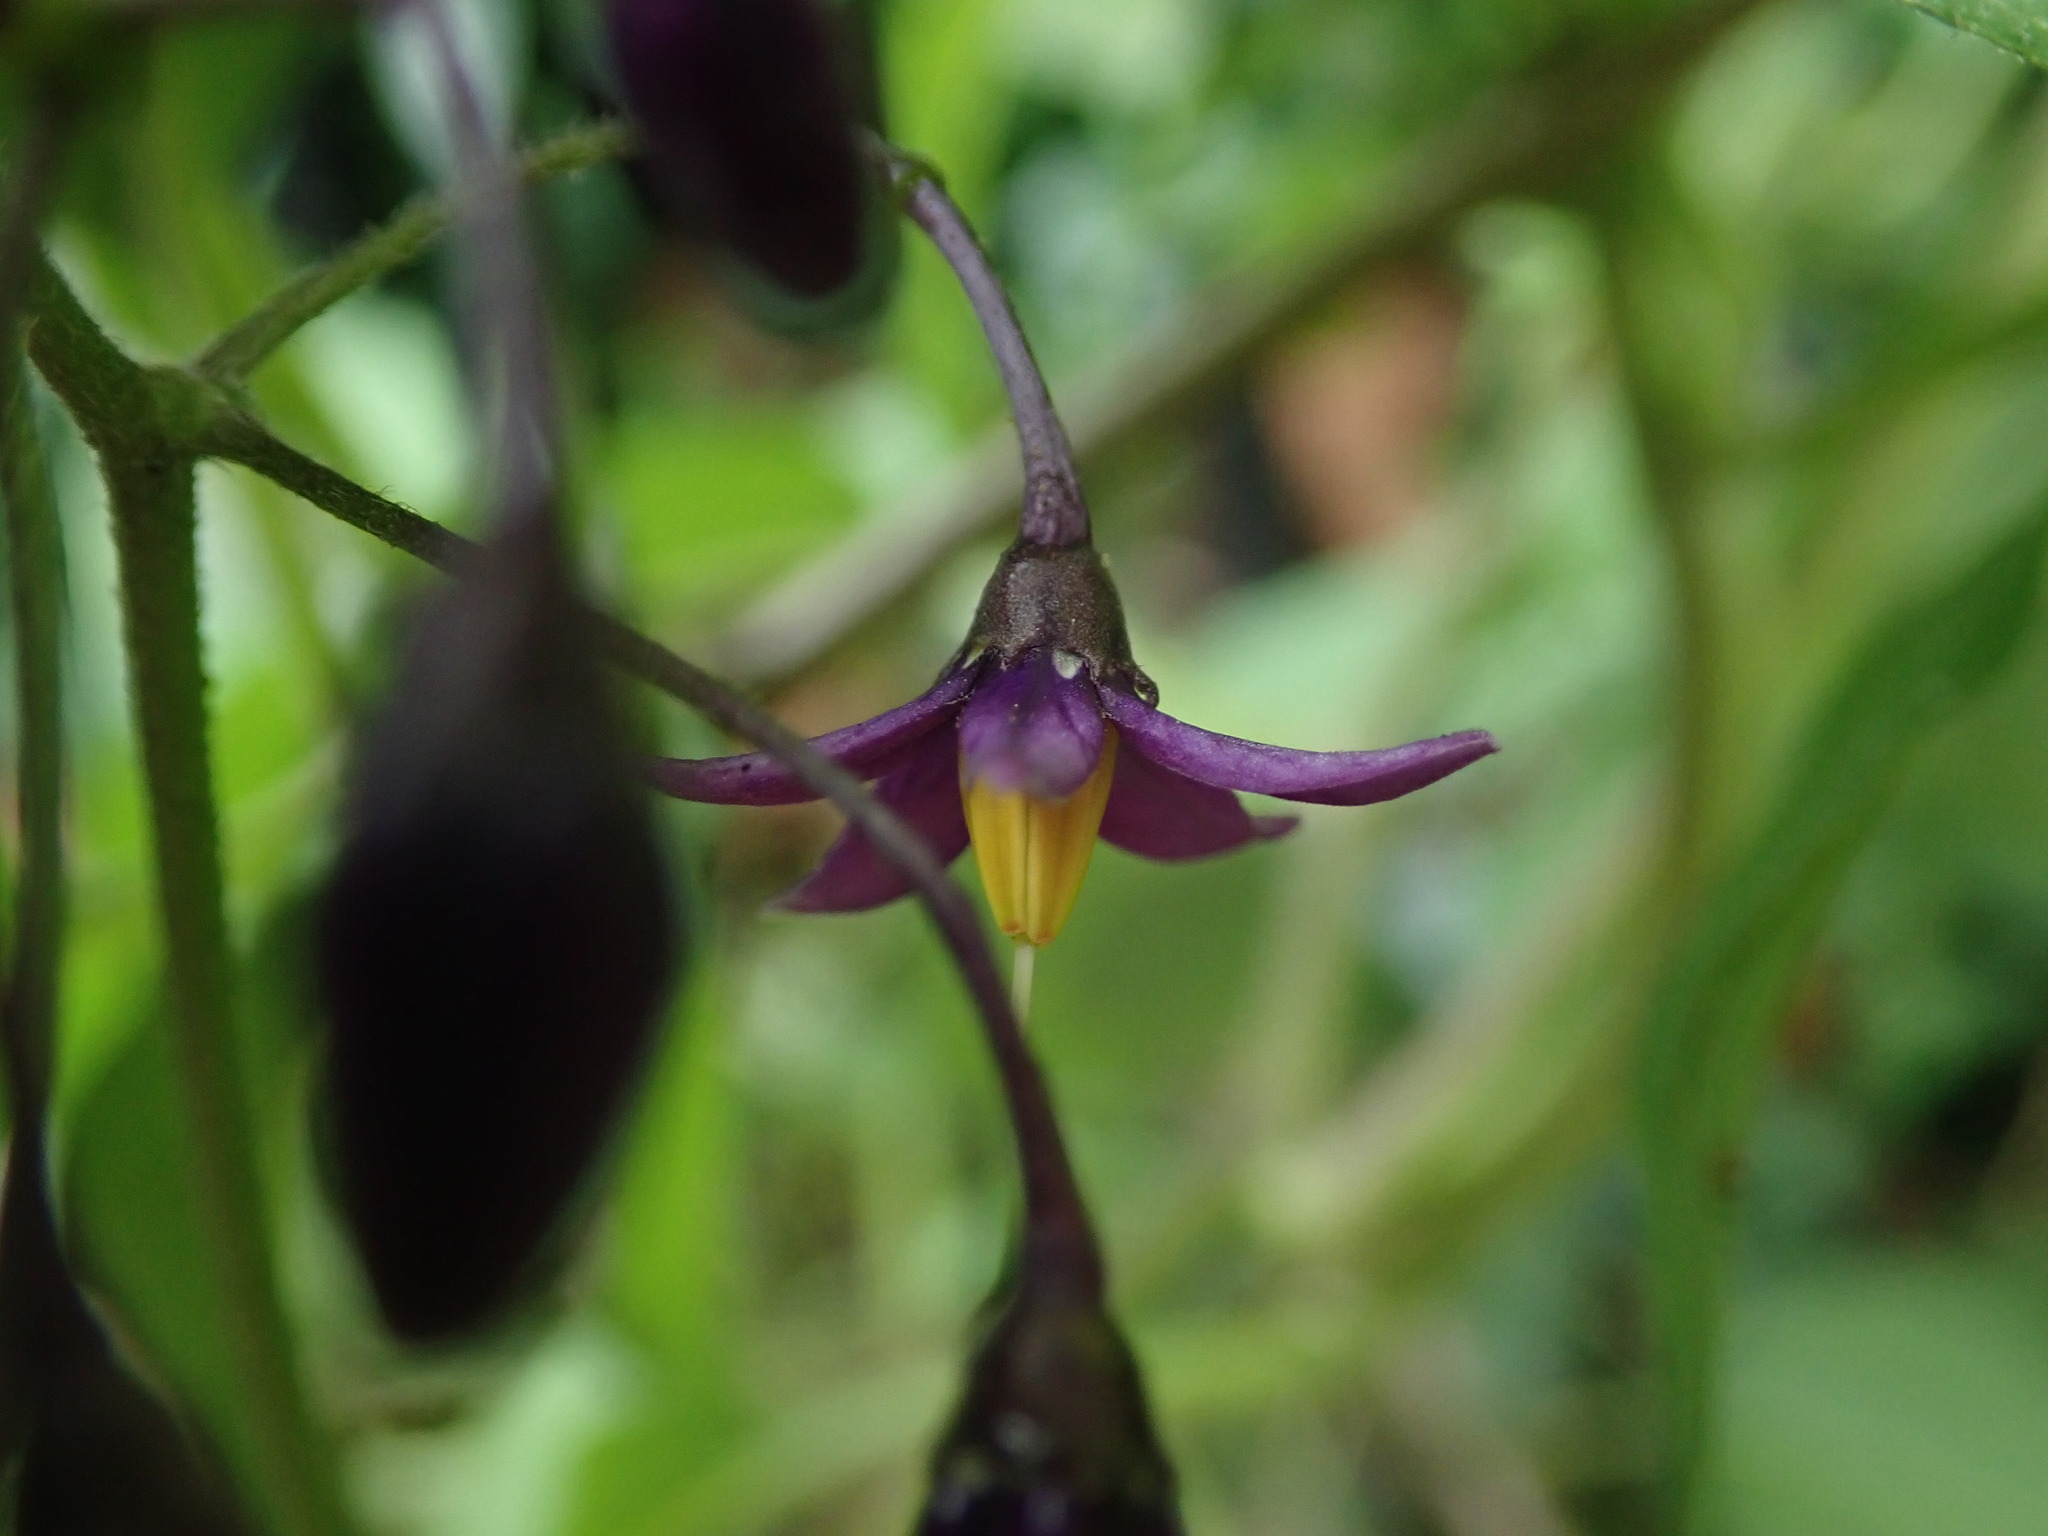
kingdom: Plantae
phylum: Tracheophyta
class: Magnoliopsida
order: Solanales
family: Solanaceae
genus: Solanum
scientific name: Solanum dulcamara
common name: Climbing nightshade
